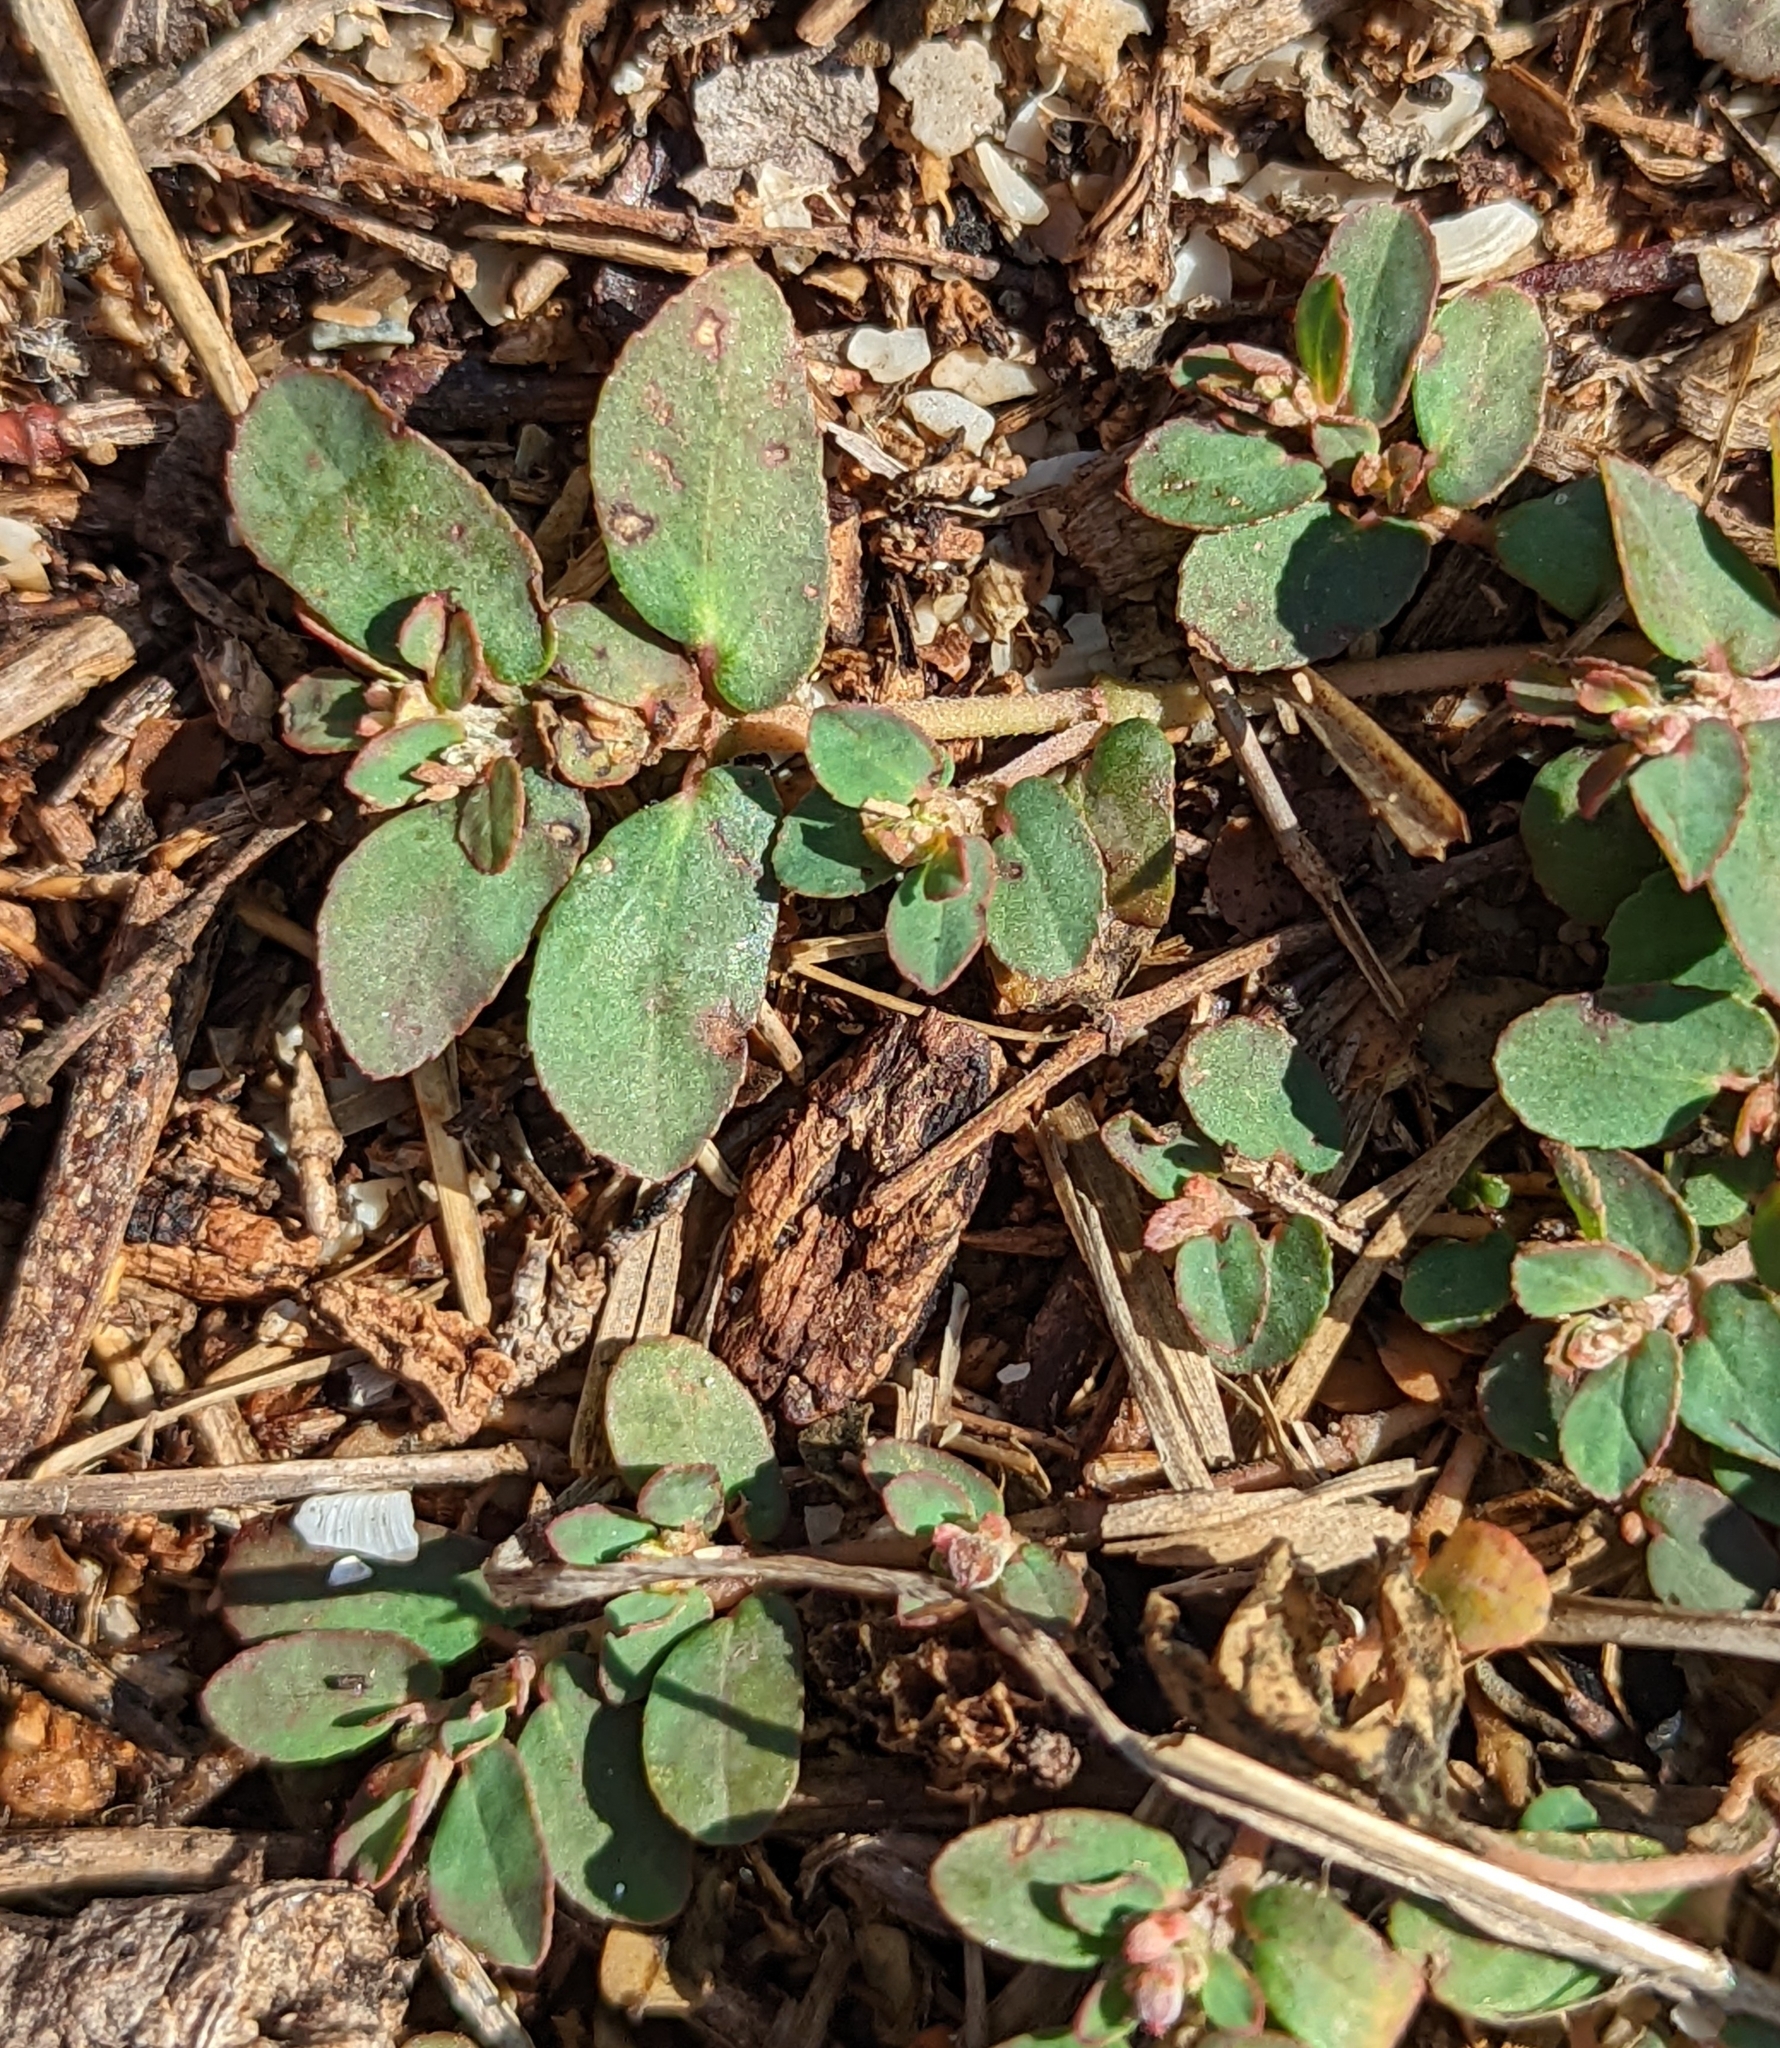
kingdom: Plantae
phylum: Tracheophyta
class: Magnoliopsida
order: Malpighiales
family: Euphorbiaceae
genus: Euphorbia
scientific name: Euphorbia maculata
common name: Spotted spurge
